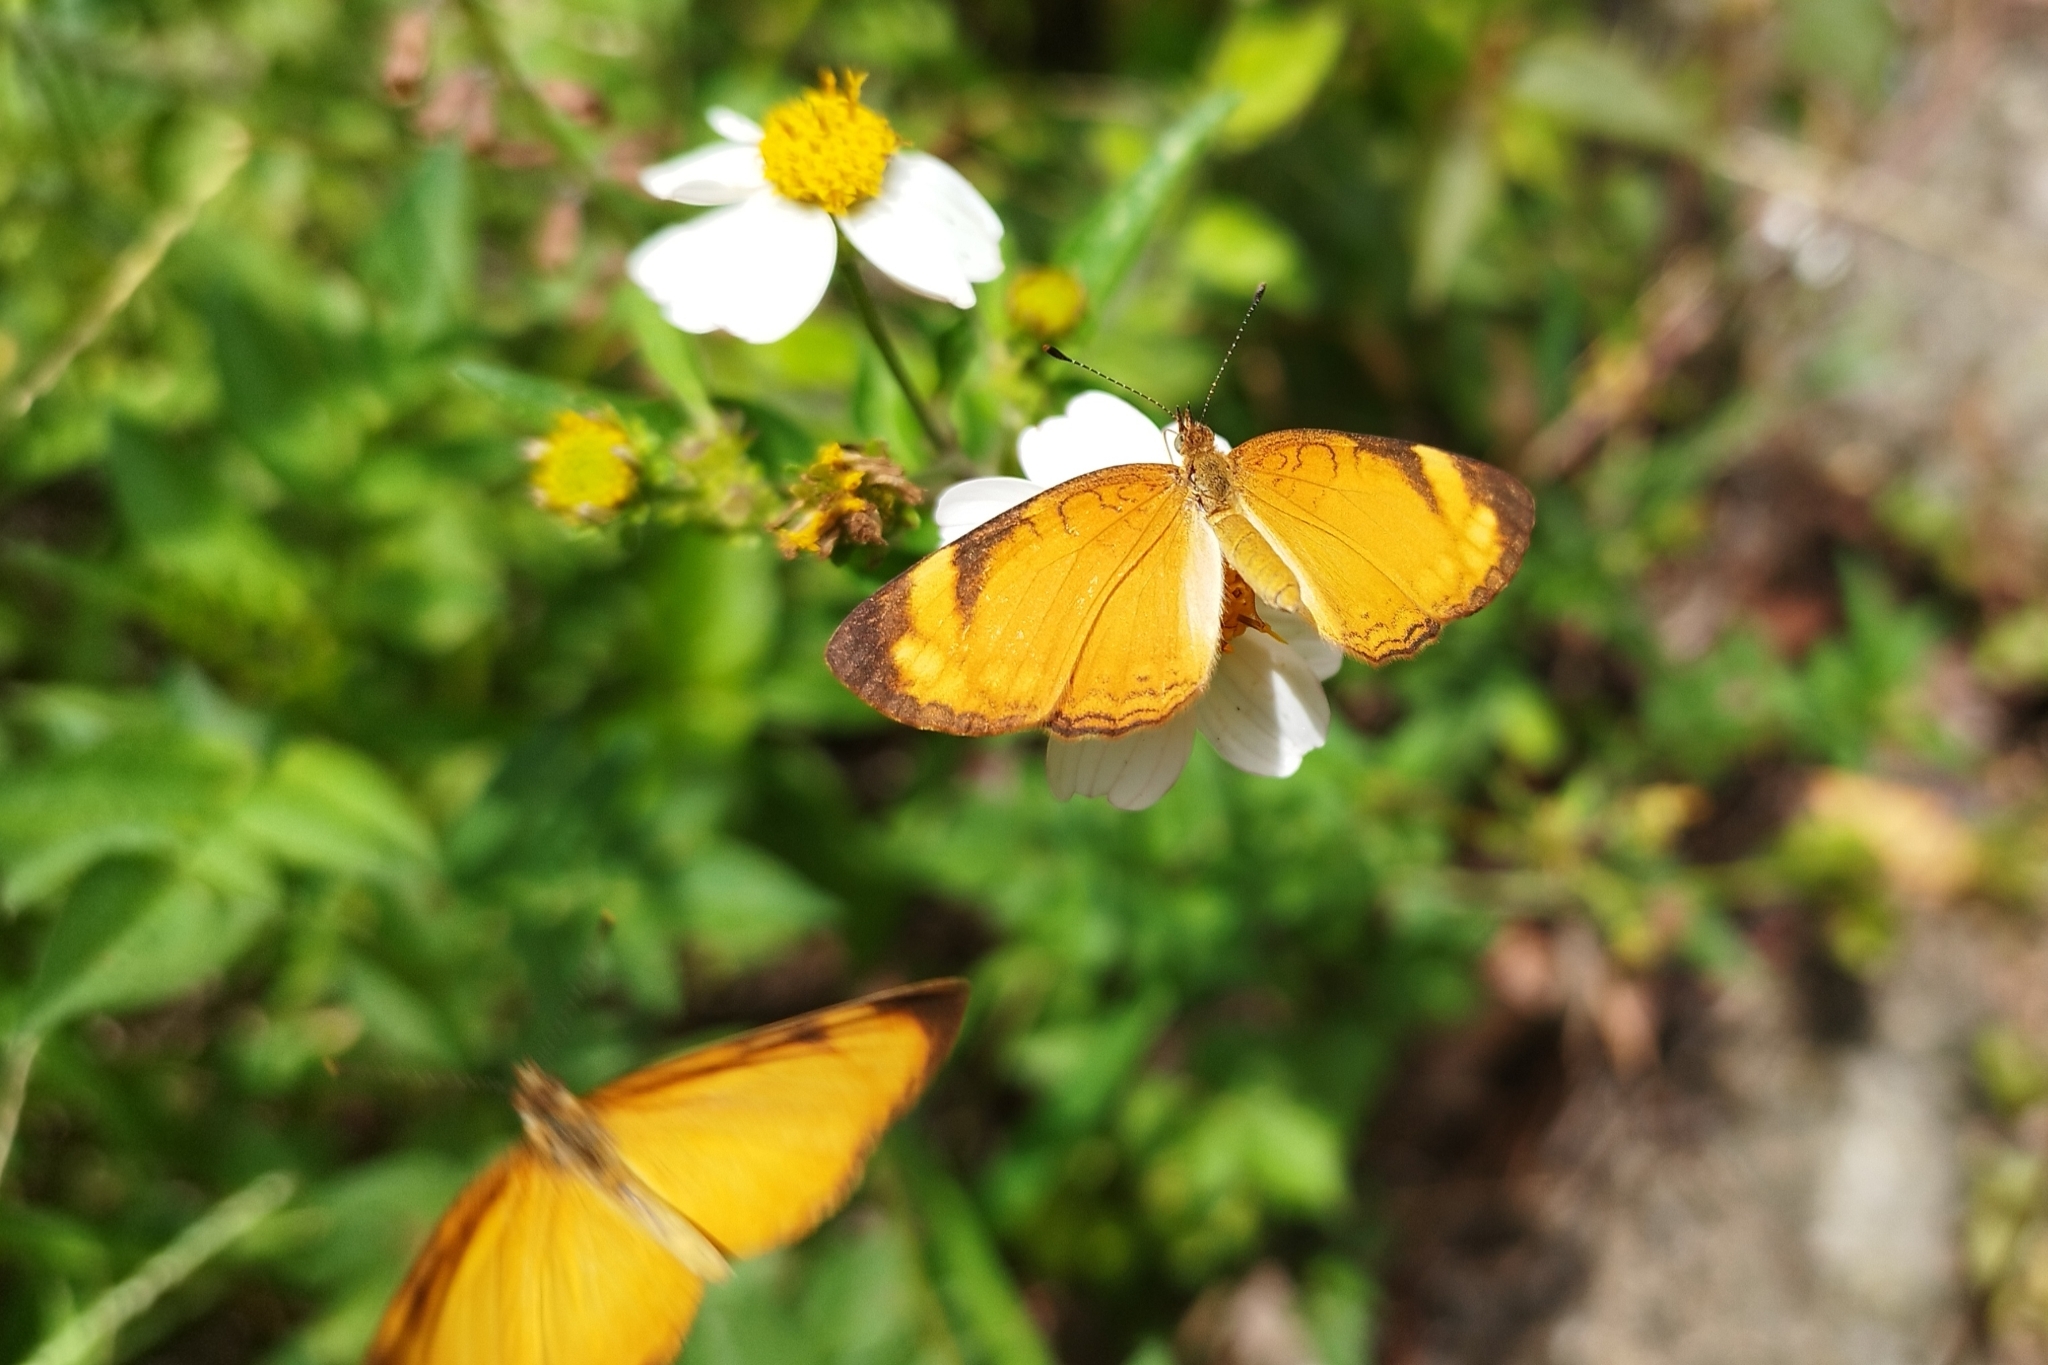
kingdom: Animalia
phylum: Arthropoda
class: Insecta
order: Lepidoptera
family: Nymphalidae
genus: Tegosa
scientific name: Tegosa guatemalena
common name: Guatemalan crescent
